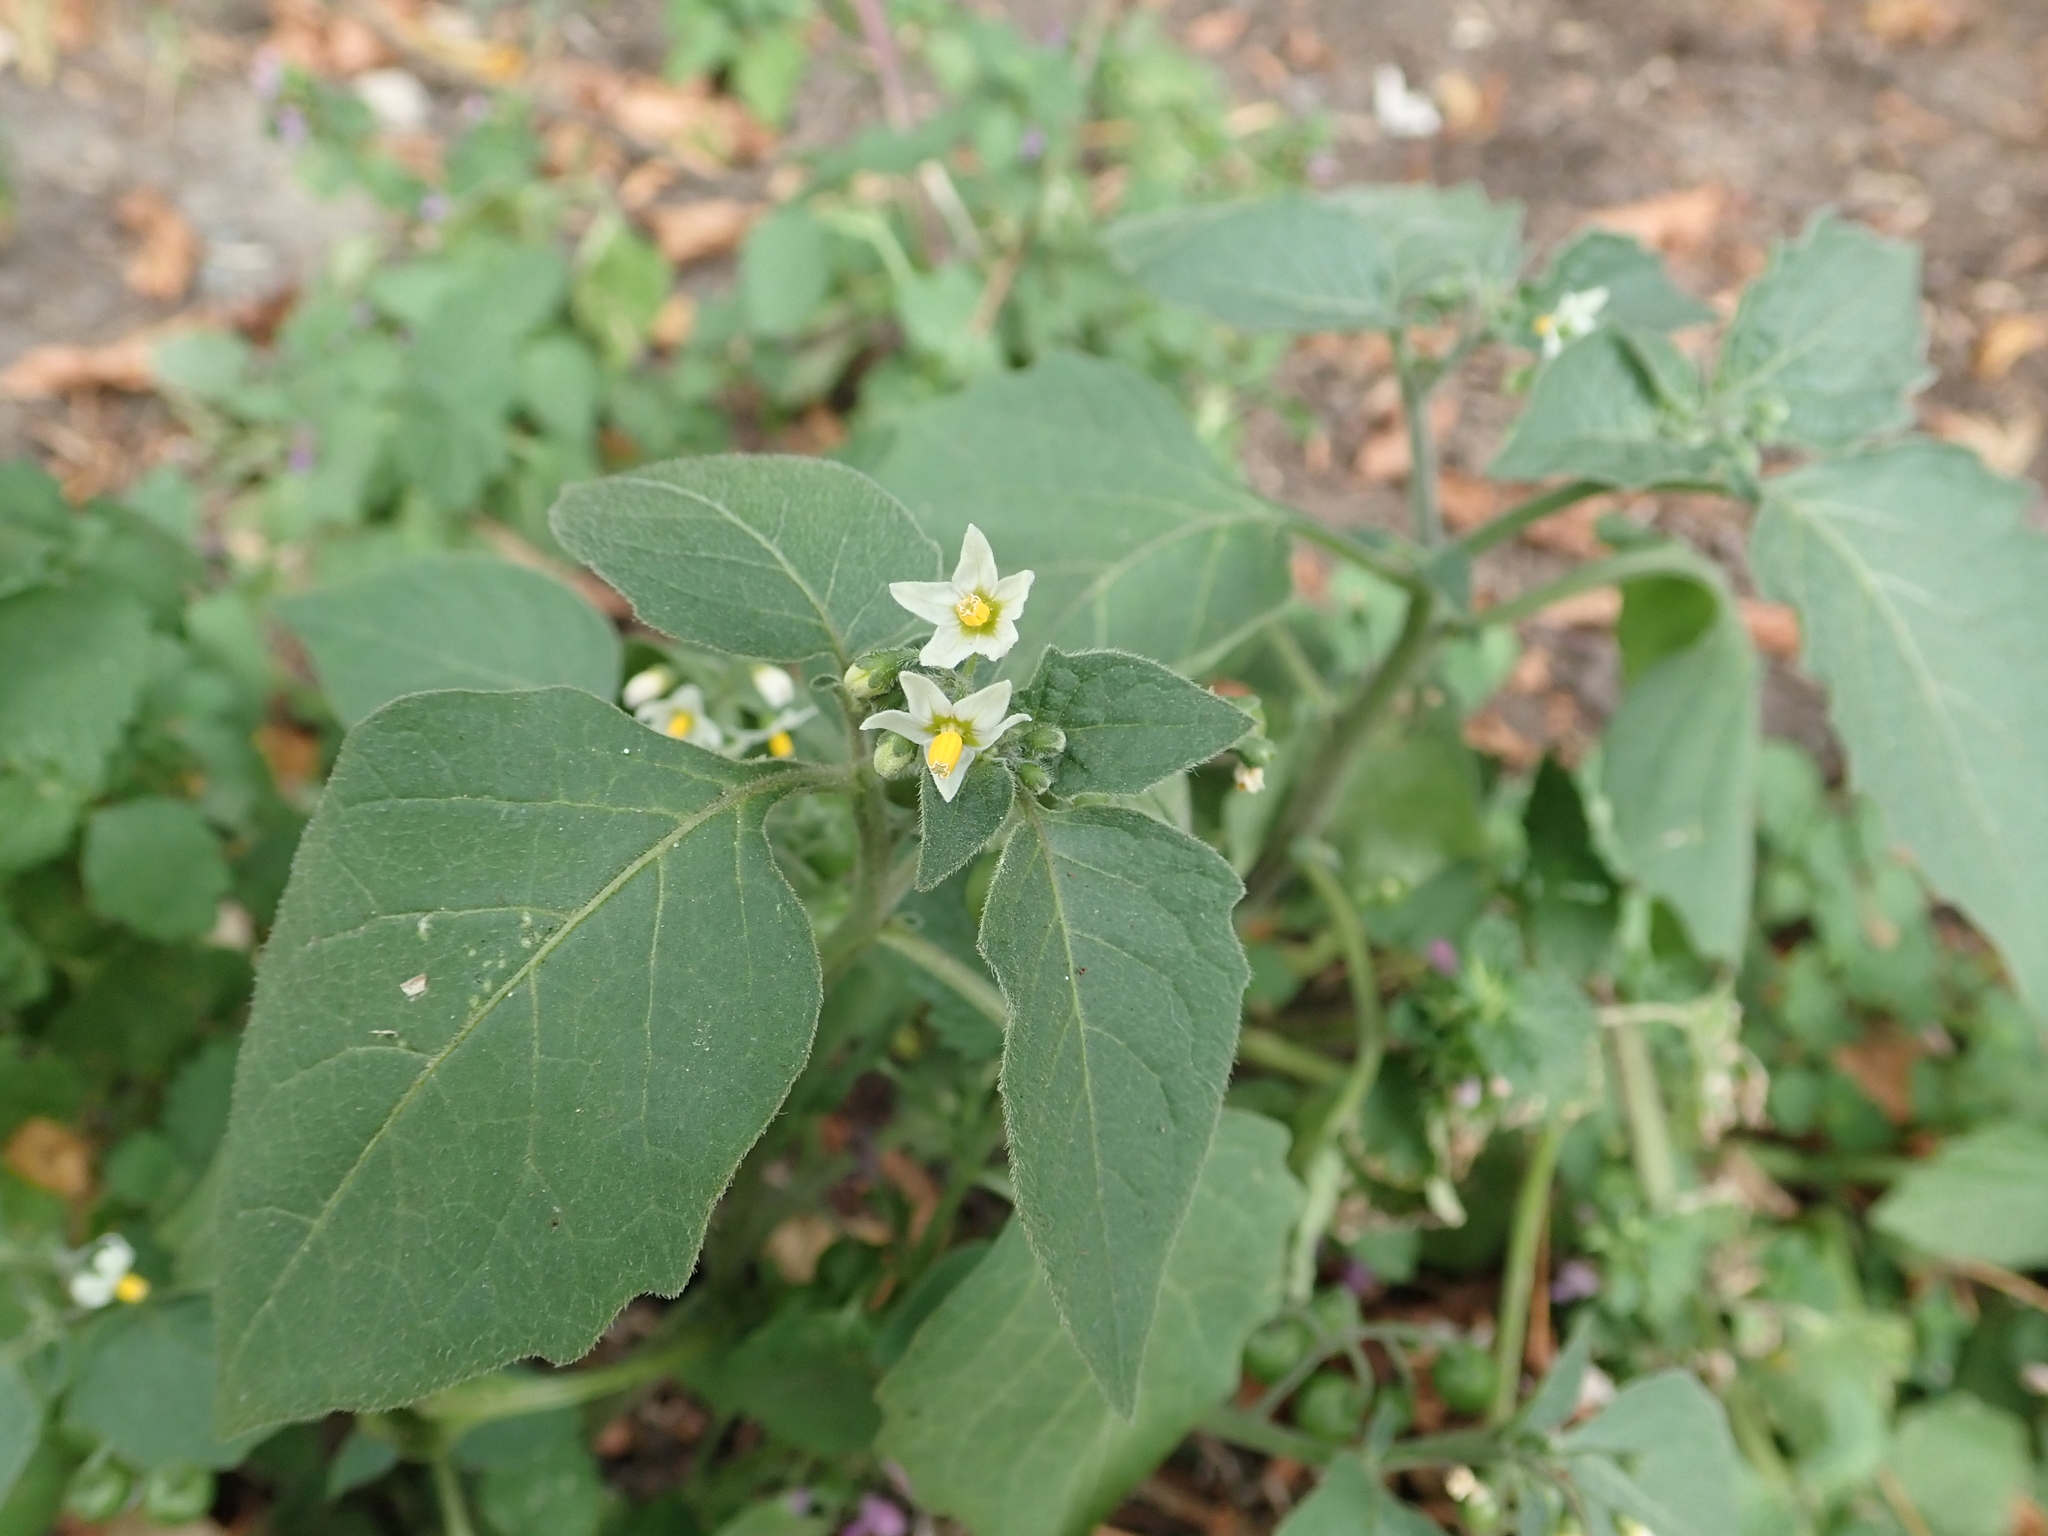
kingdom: Plantae
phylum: Tracheophyta
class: Magnoliopsida
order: Solanales
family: Solanaceae
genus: Solanum
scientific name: Solanum nigrum
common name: Black nightshade
